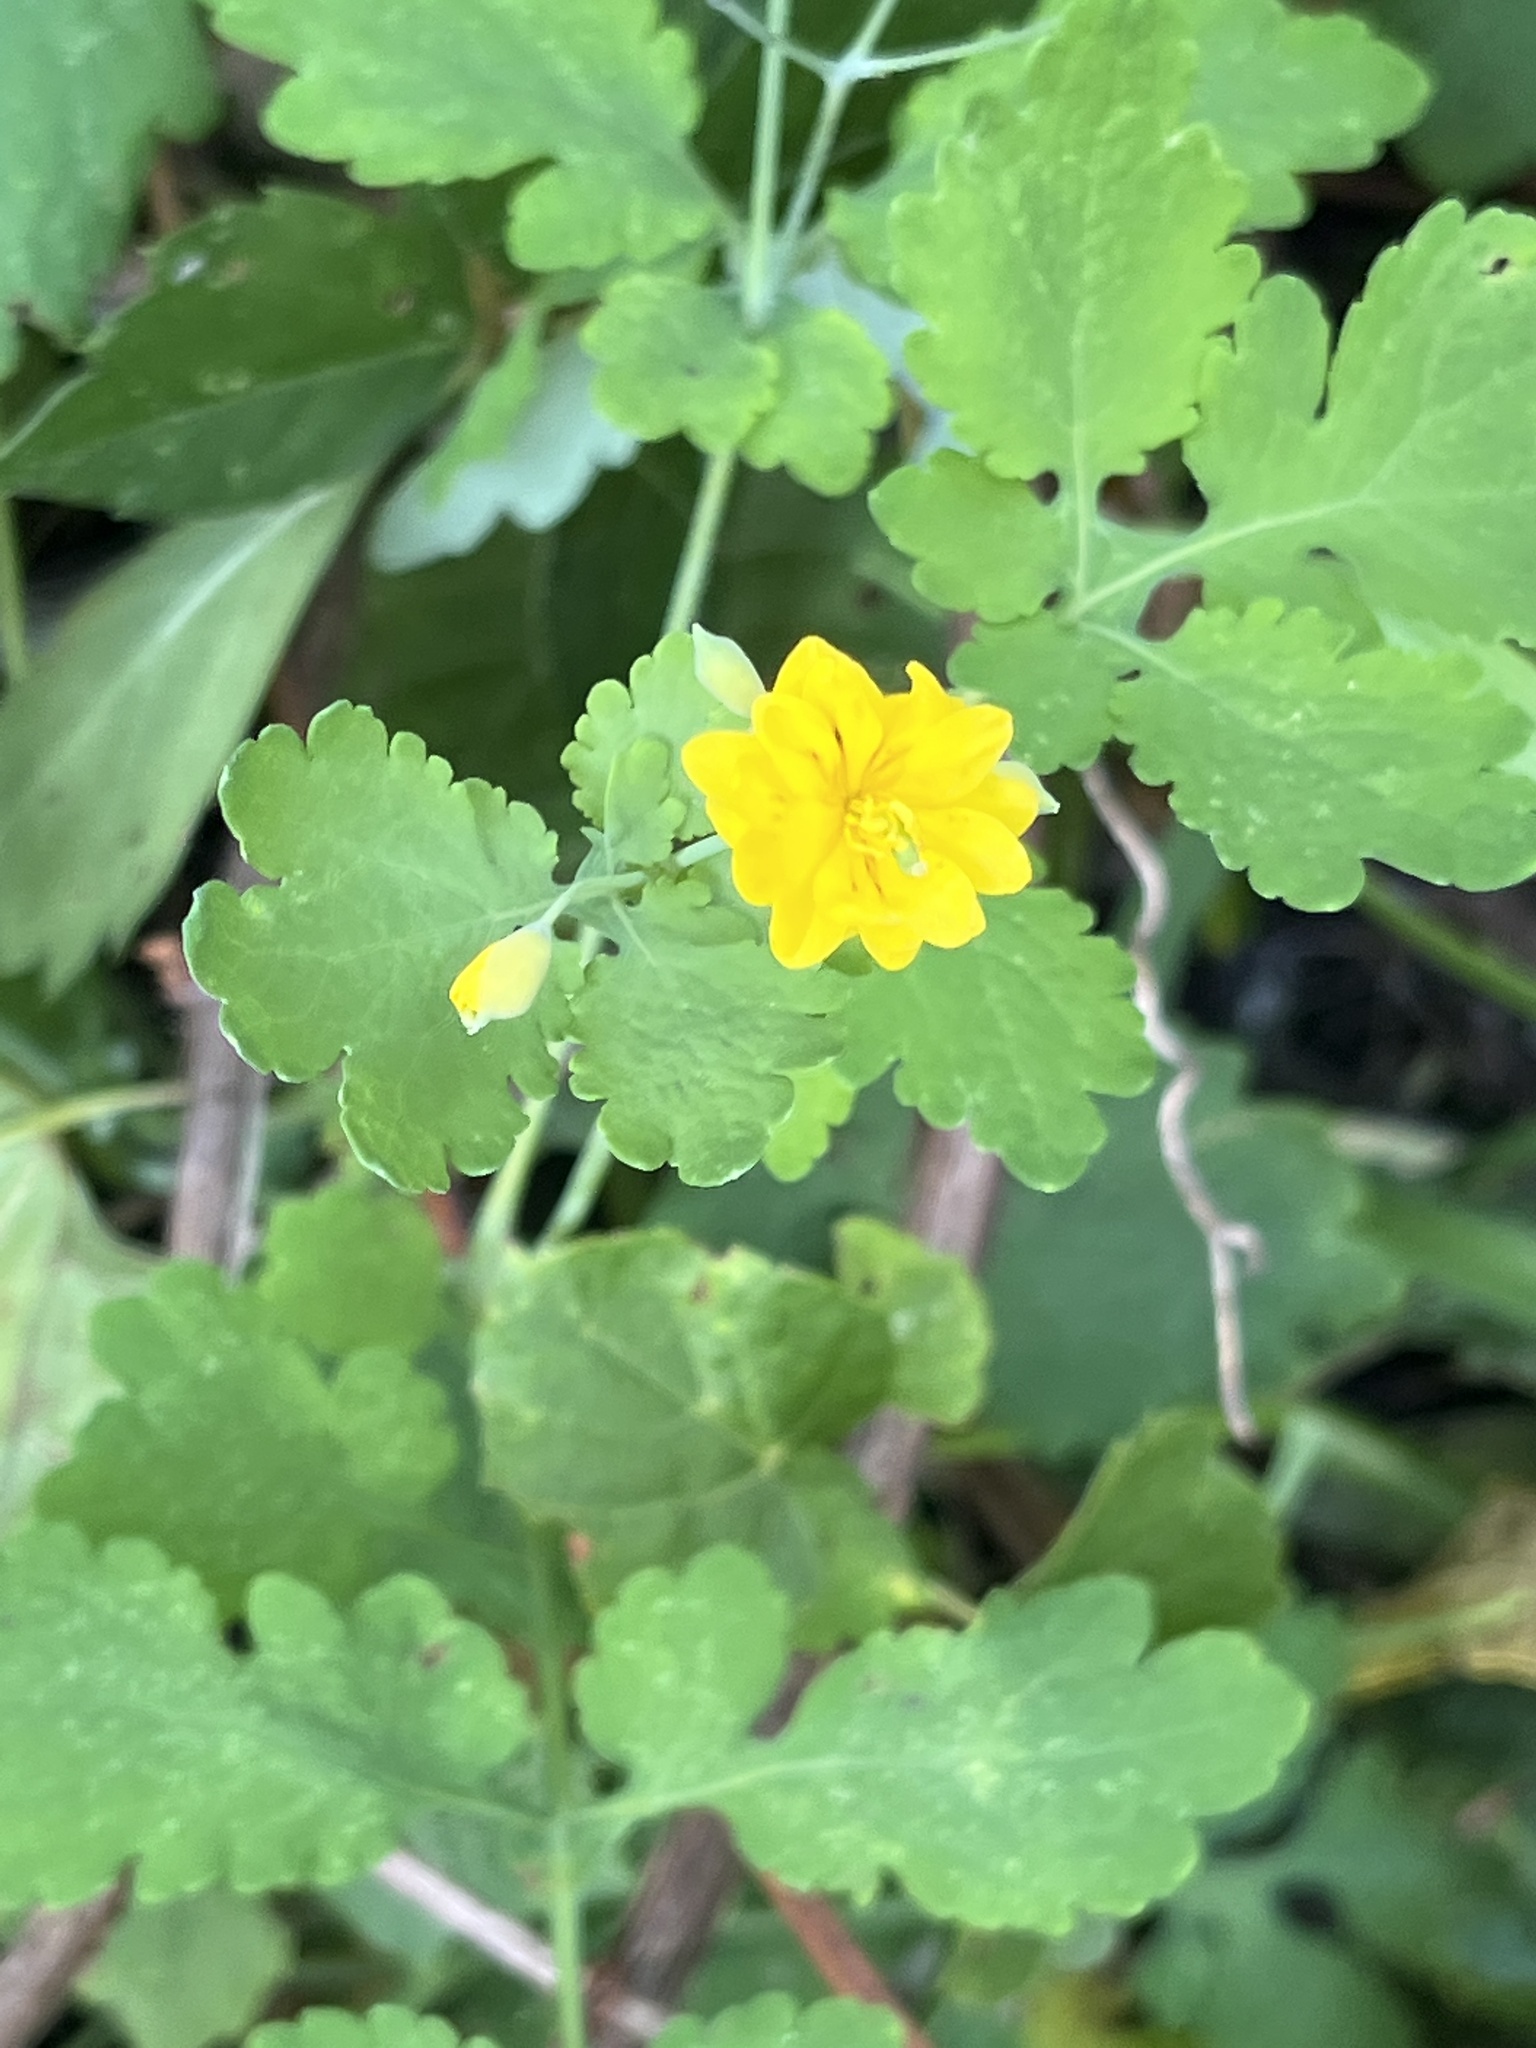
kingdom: Plantae
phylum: Tracheophyta
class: Magnoliopsida
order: Ranunculales
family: Papaveraceae
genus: Chelidonium
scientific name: Chelidonium majus
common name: Greater celandine
